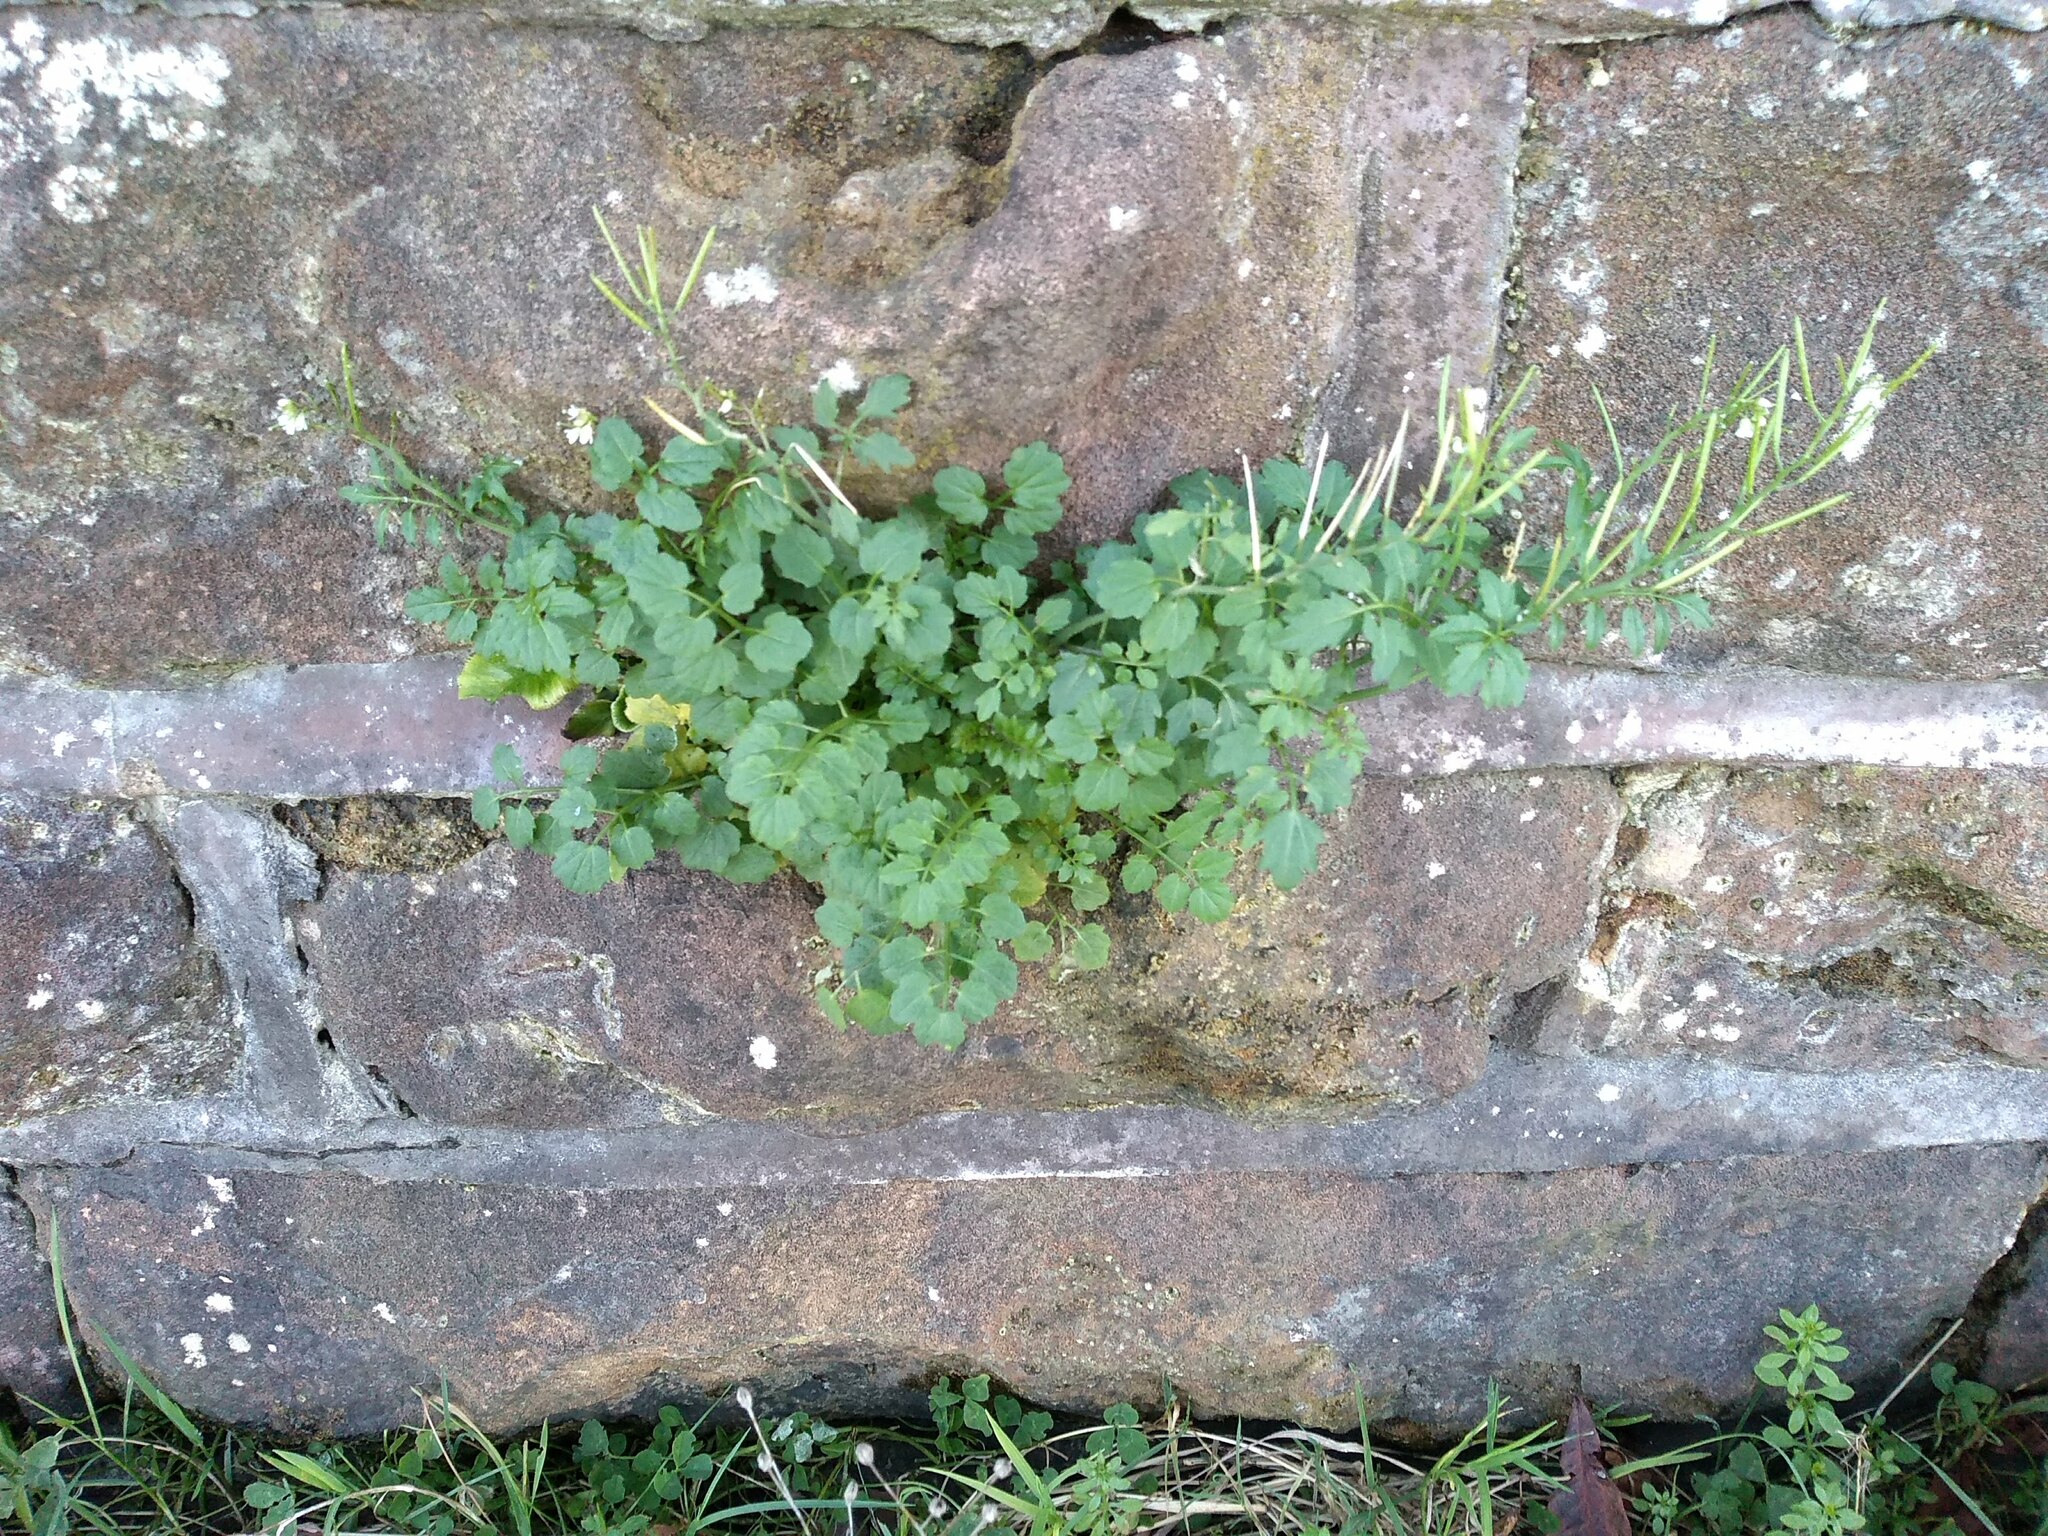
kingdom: Plantae
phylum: Tracheophyta
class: Magnoliopsida
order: Brassicales
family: Brassicaceae
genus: Cardamine
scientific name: Cardamine flexuosa
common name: Woodland bittercress
